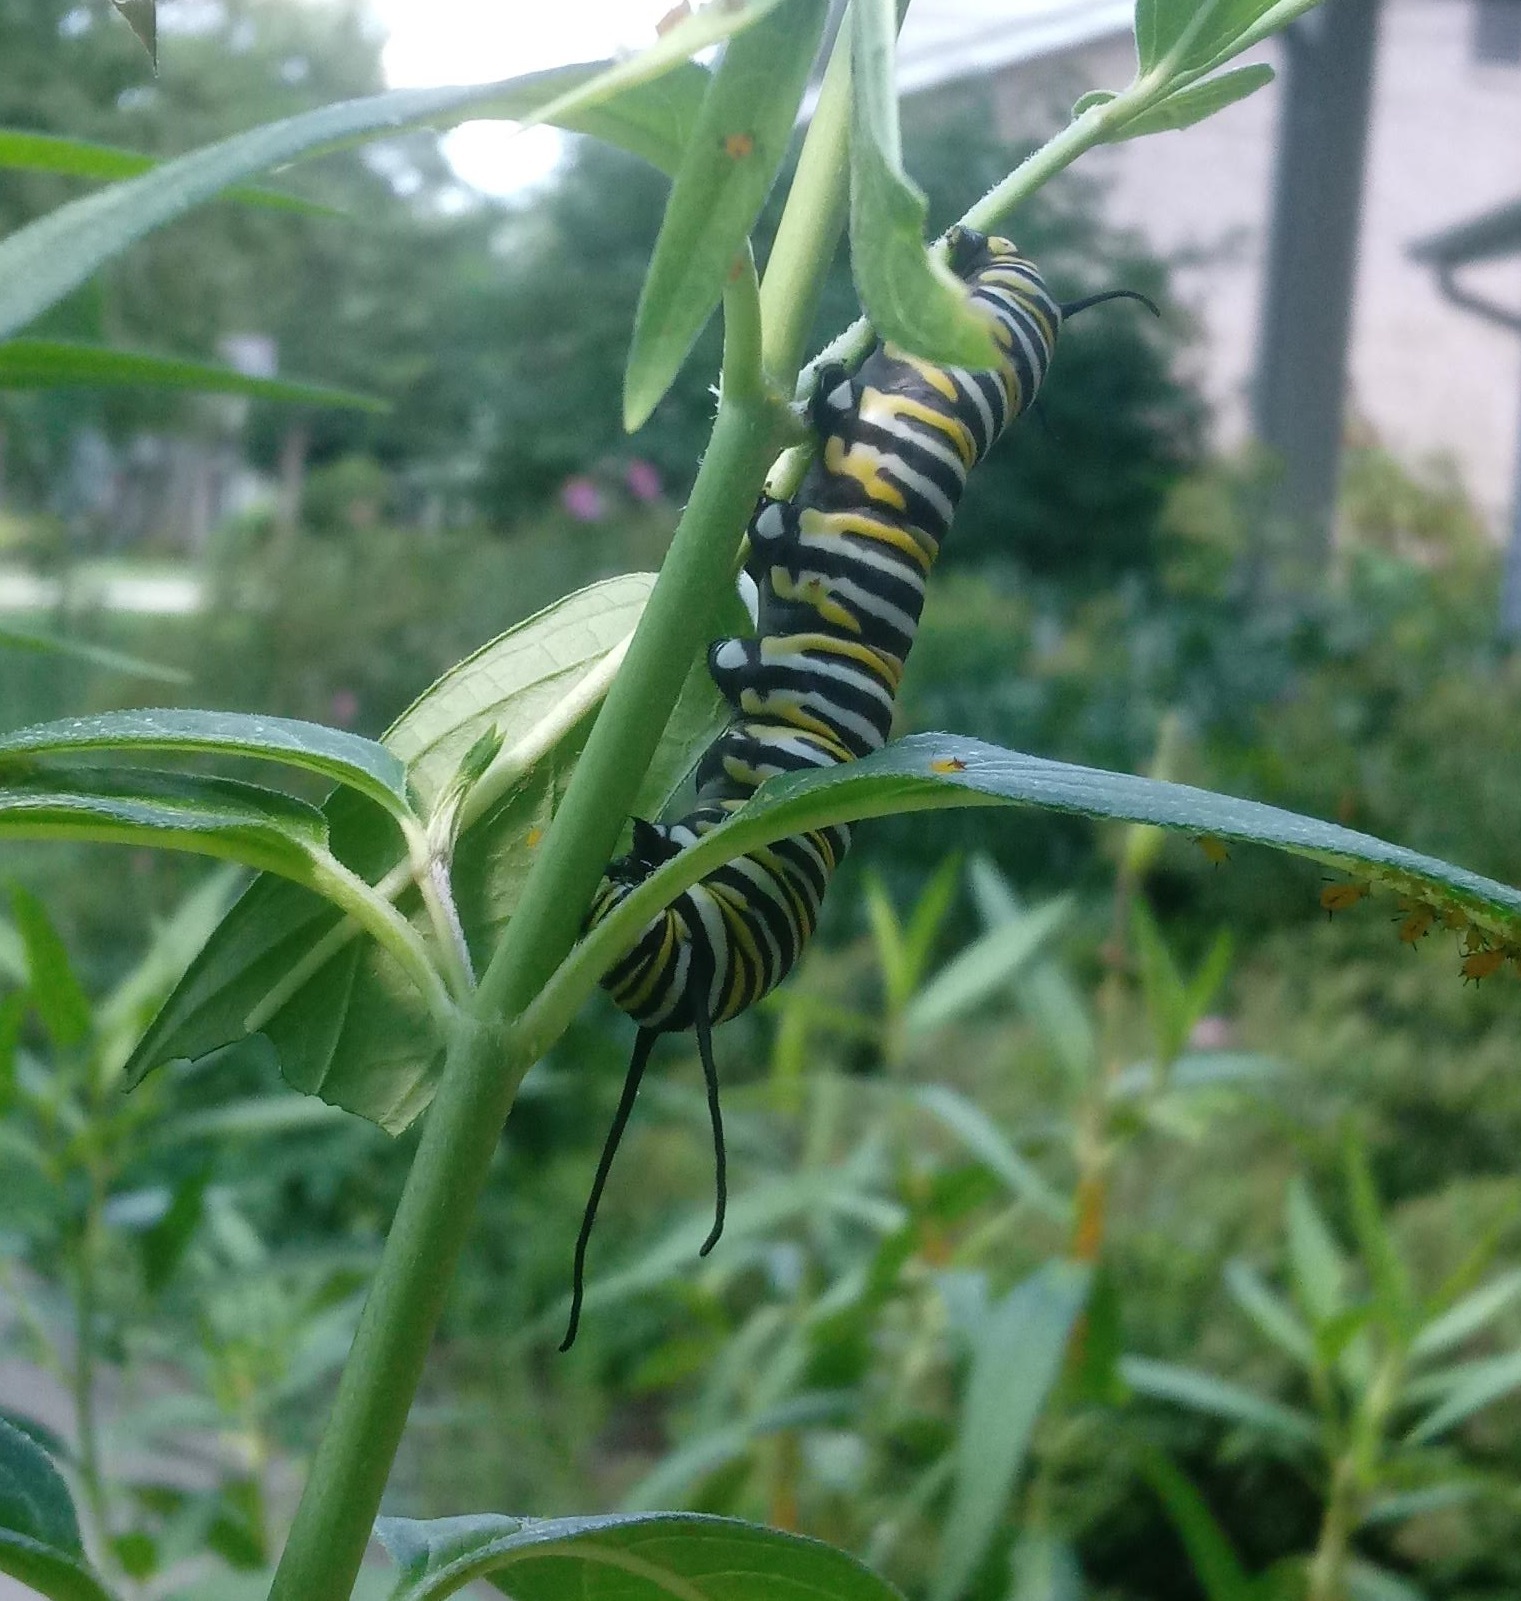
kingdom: Animalia
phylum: Arthropoda
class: Insecta
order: Lepidoptera
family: Nymphalidae
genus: Danaus
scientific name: Danaus plexippus
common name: Monarch
